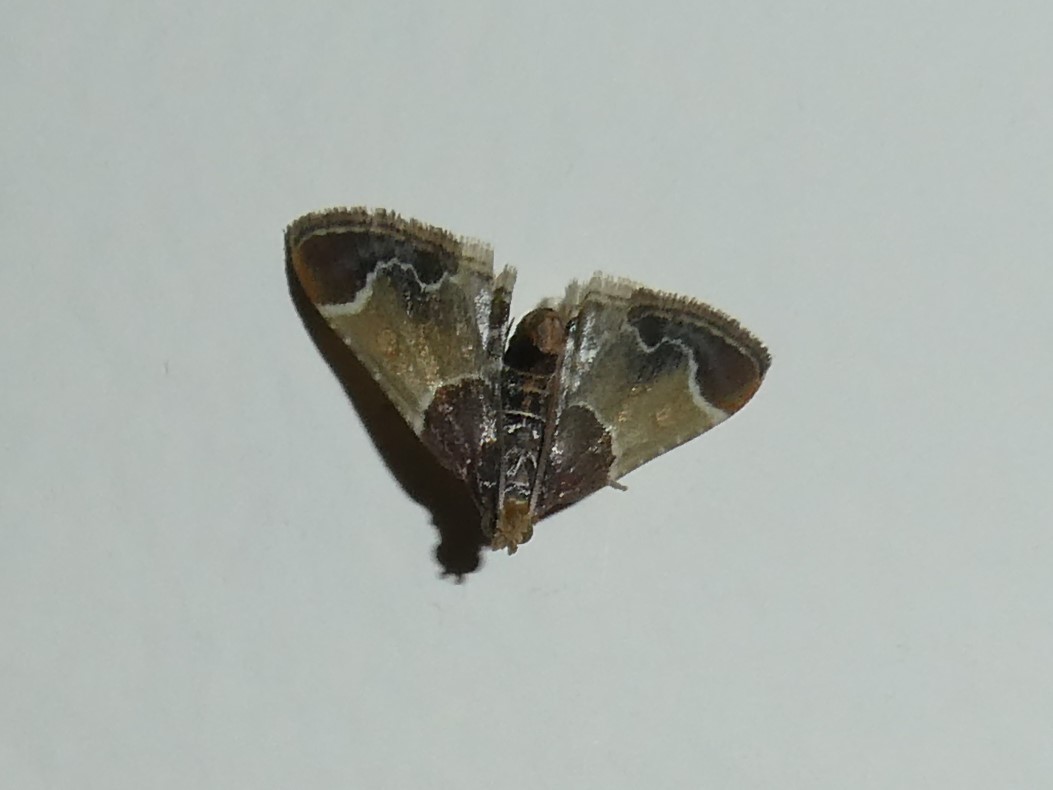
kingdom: Animalia
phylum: Arthropoda
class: Insecta
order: Lepidoptera
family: Pyralidae
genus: Pyralis
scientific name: Pyralis farinalis
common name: Meal moth
